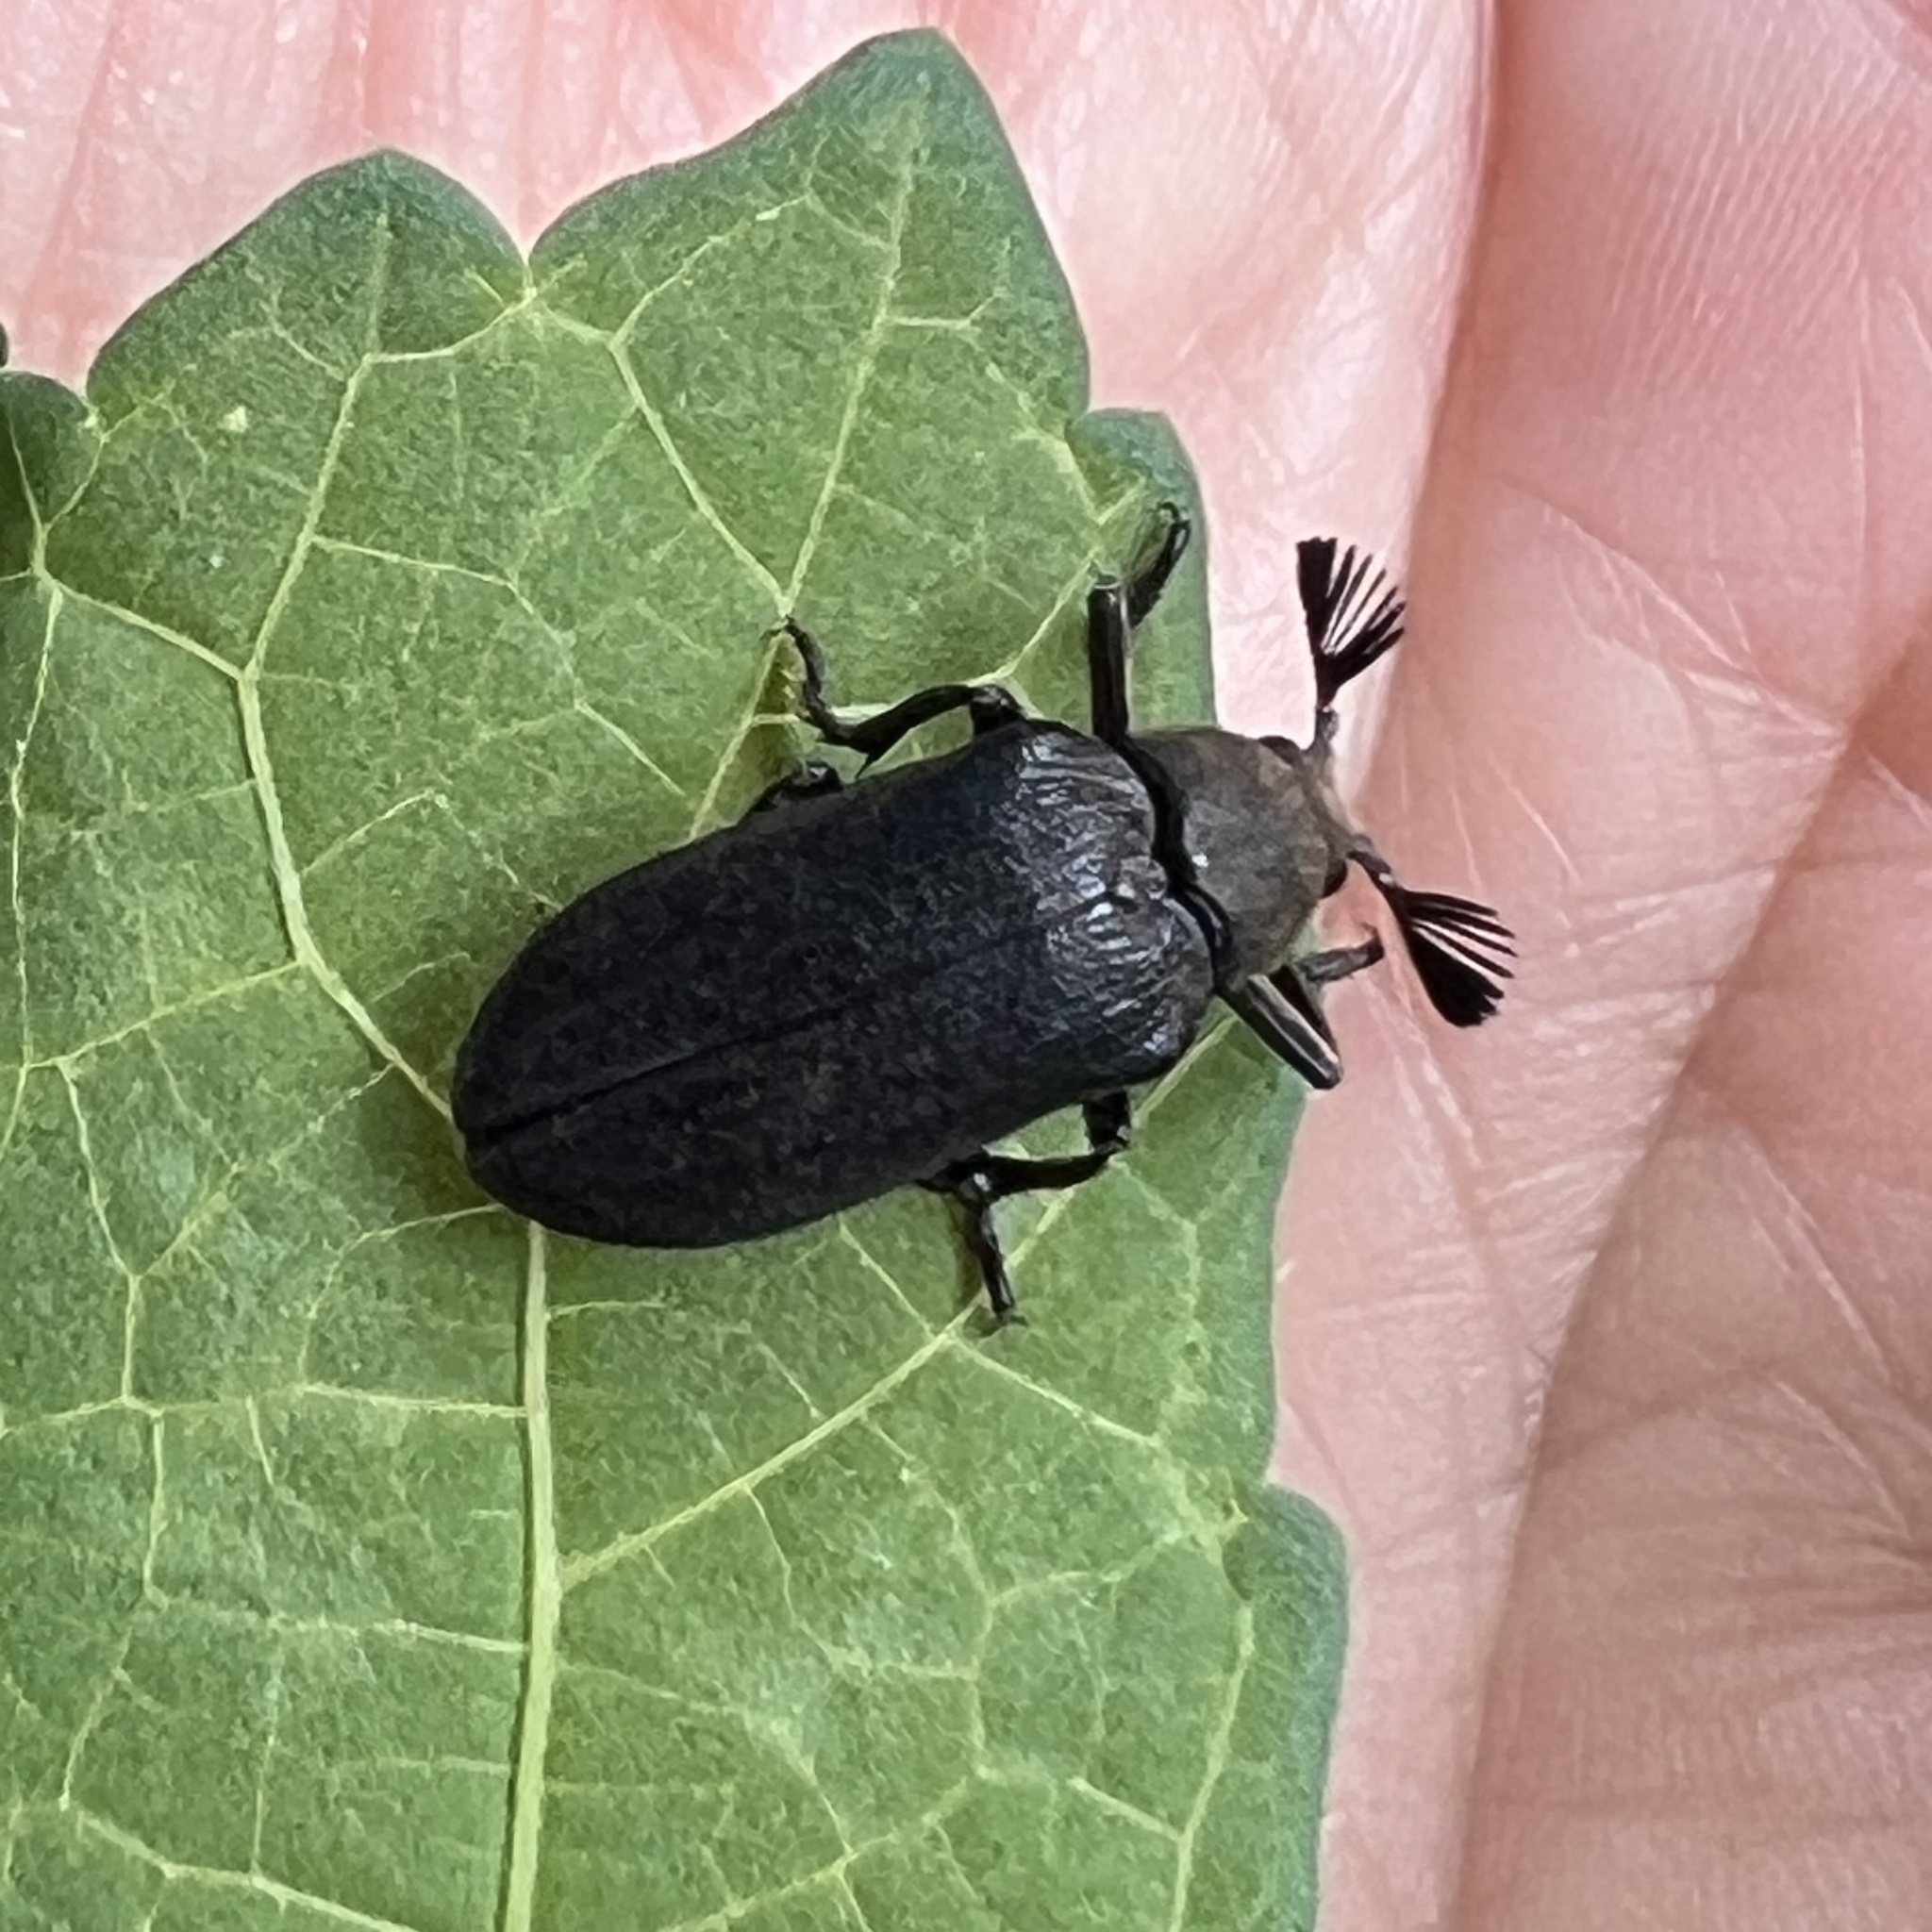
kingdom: Animalia
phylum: Arthropoda
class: Insecta
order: Coleoptera
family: Rhipiceridae
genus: Sandalus
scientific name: Sandalus niger
